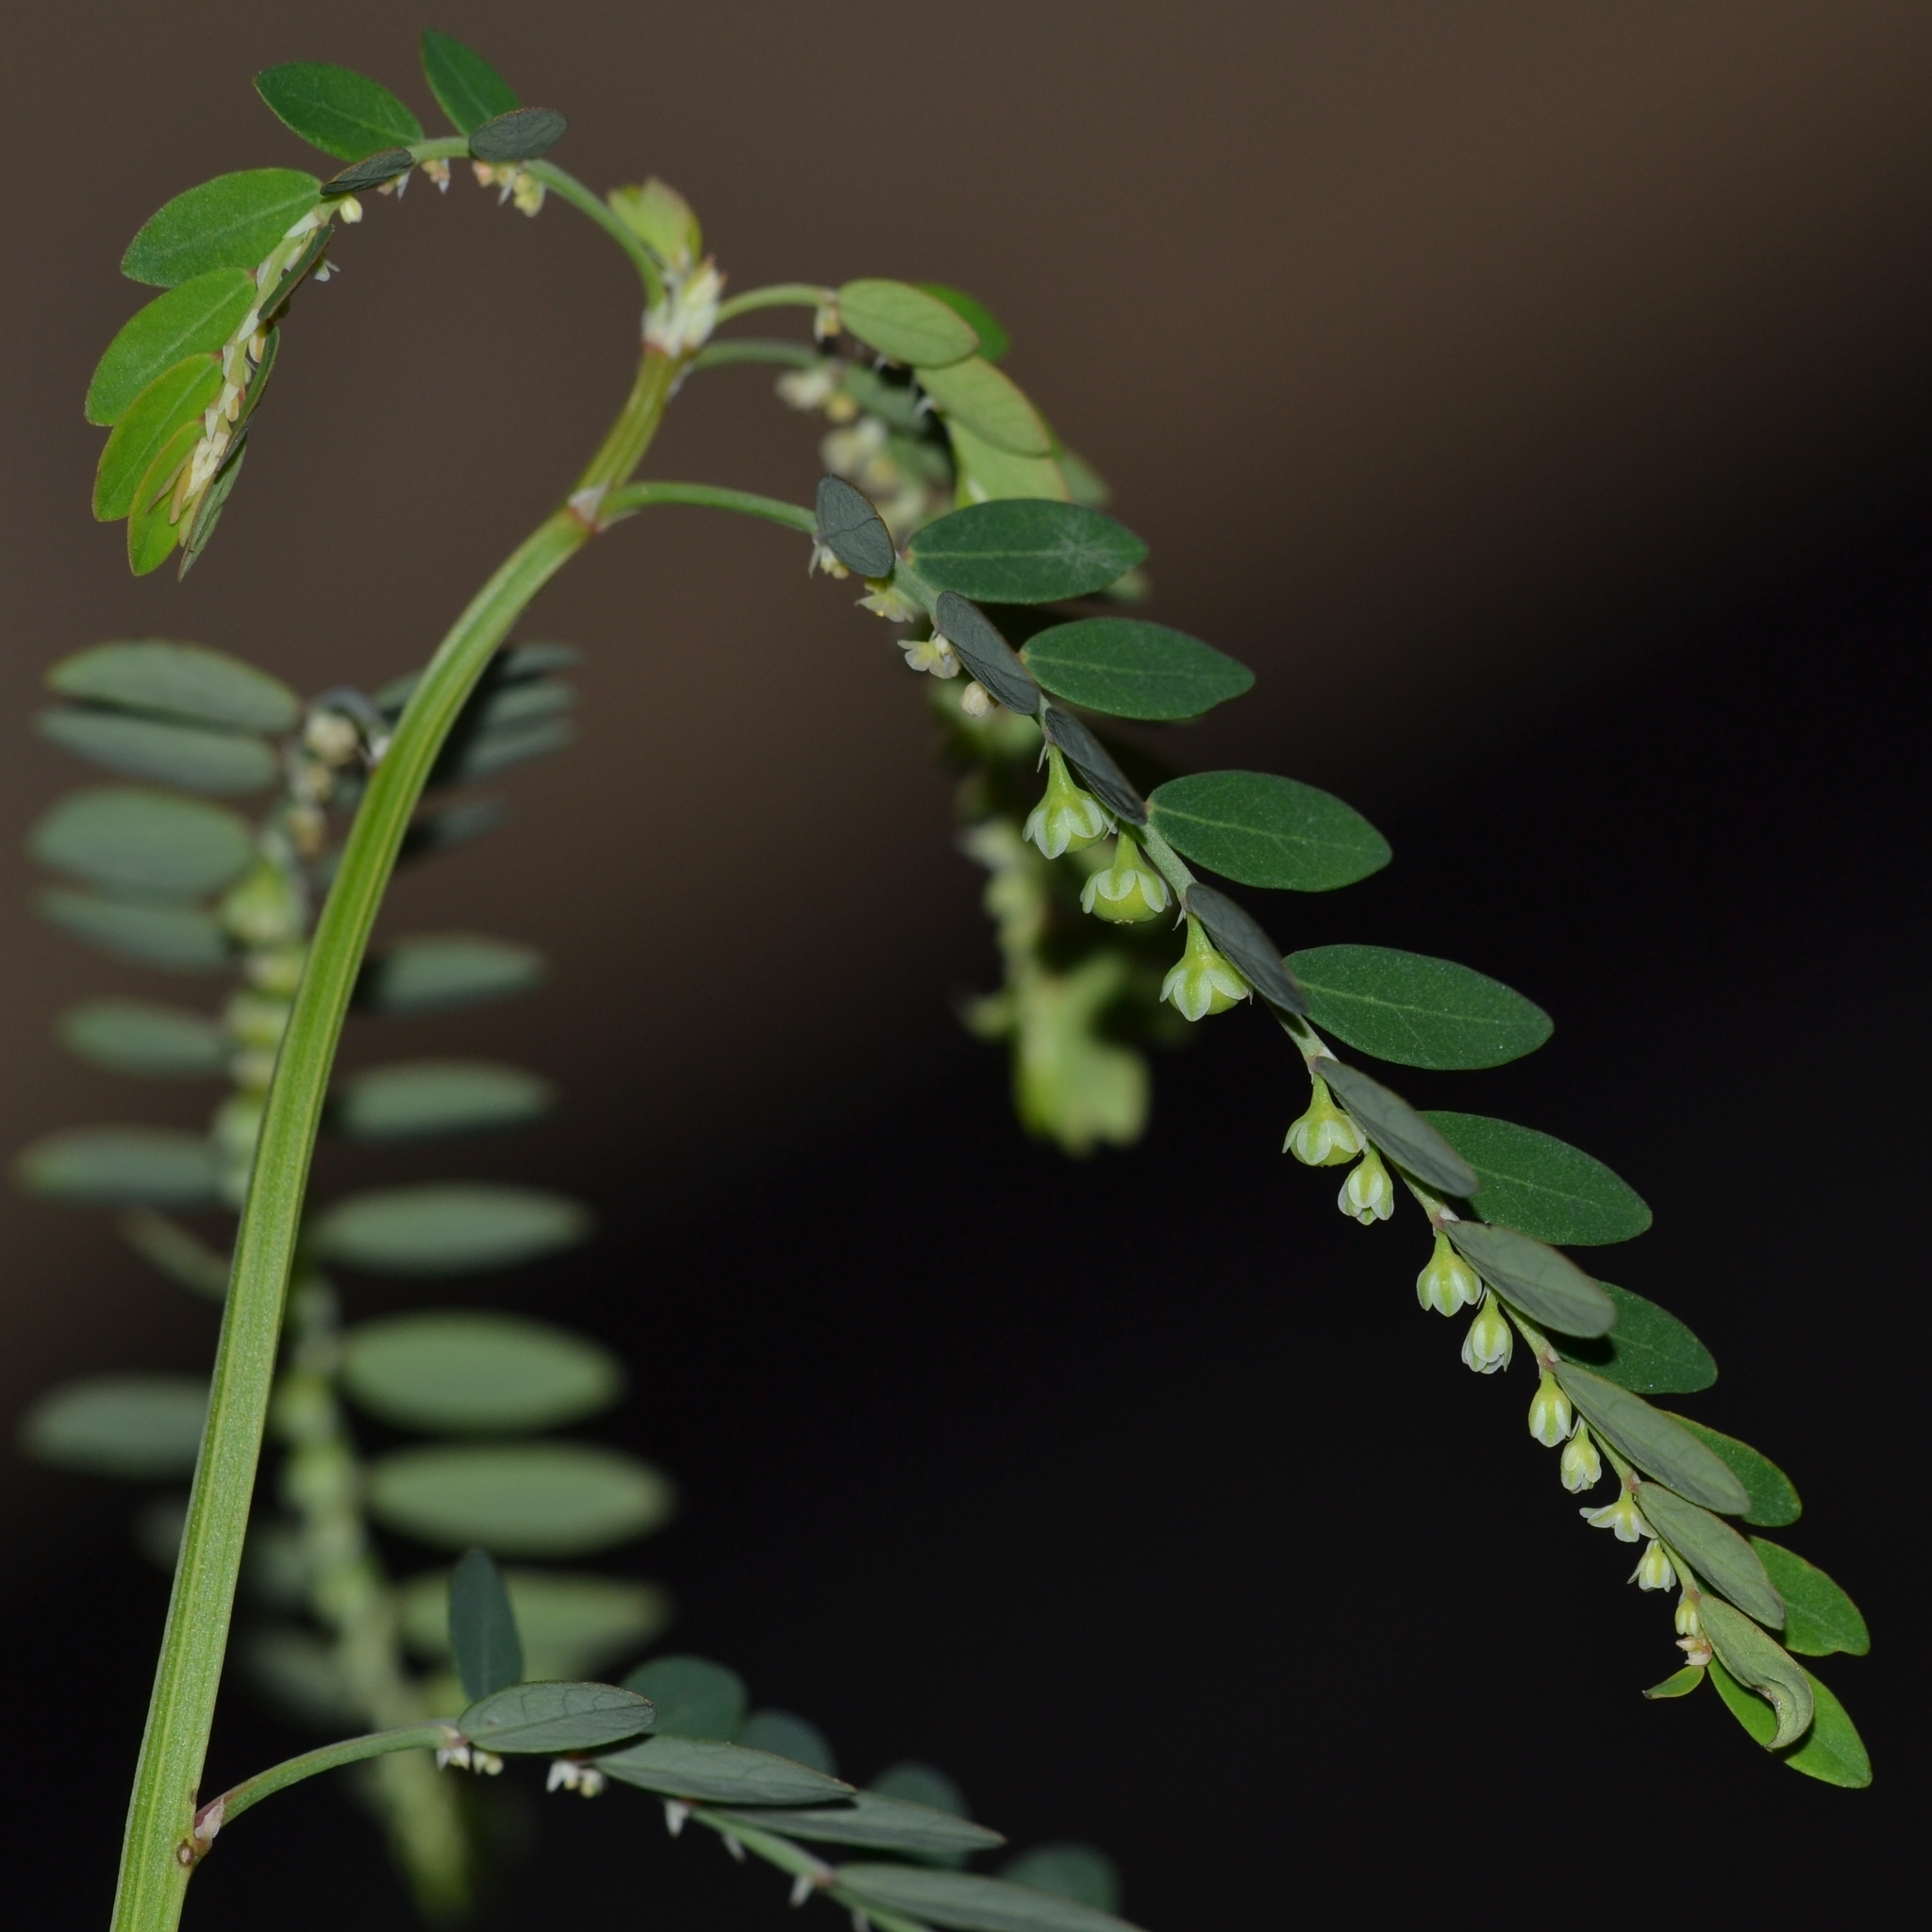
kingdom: Plantae
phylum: Tracheophyta
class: Magnoliopsida
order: Malpighiales
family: Phyllanthaceae
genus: Phyllanthus
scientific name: Phyllanthus debilis
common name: Niruri
